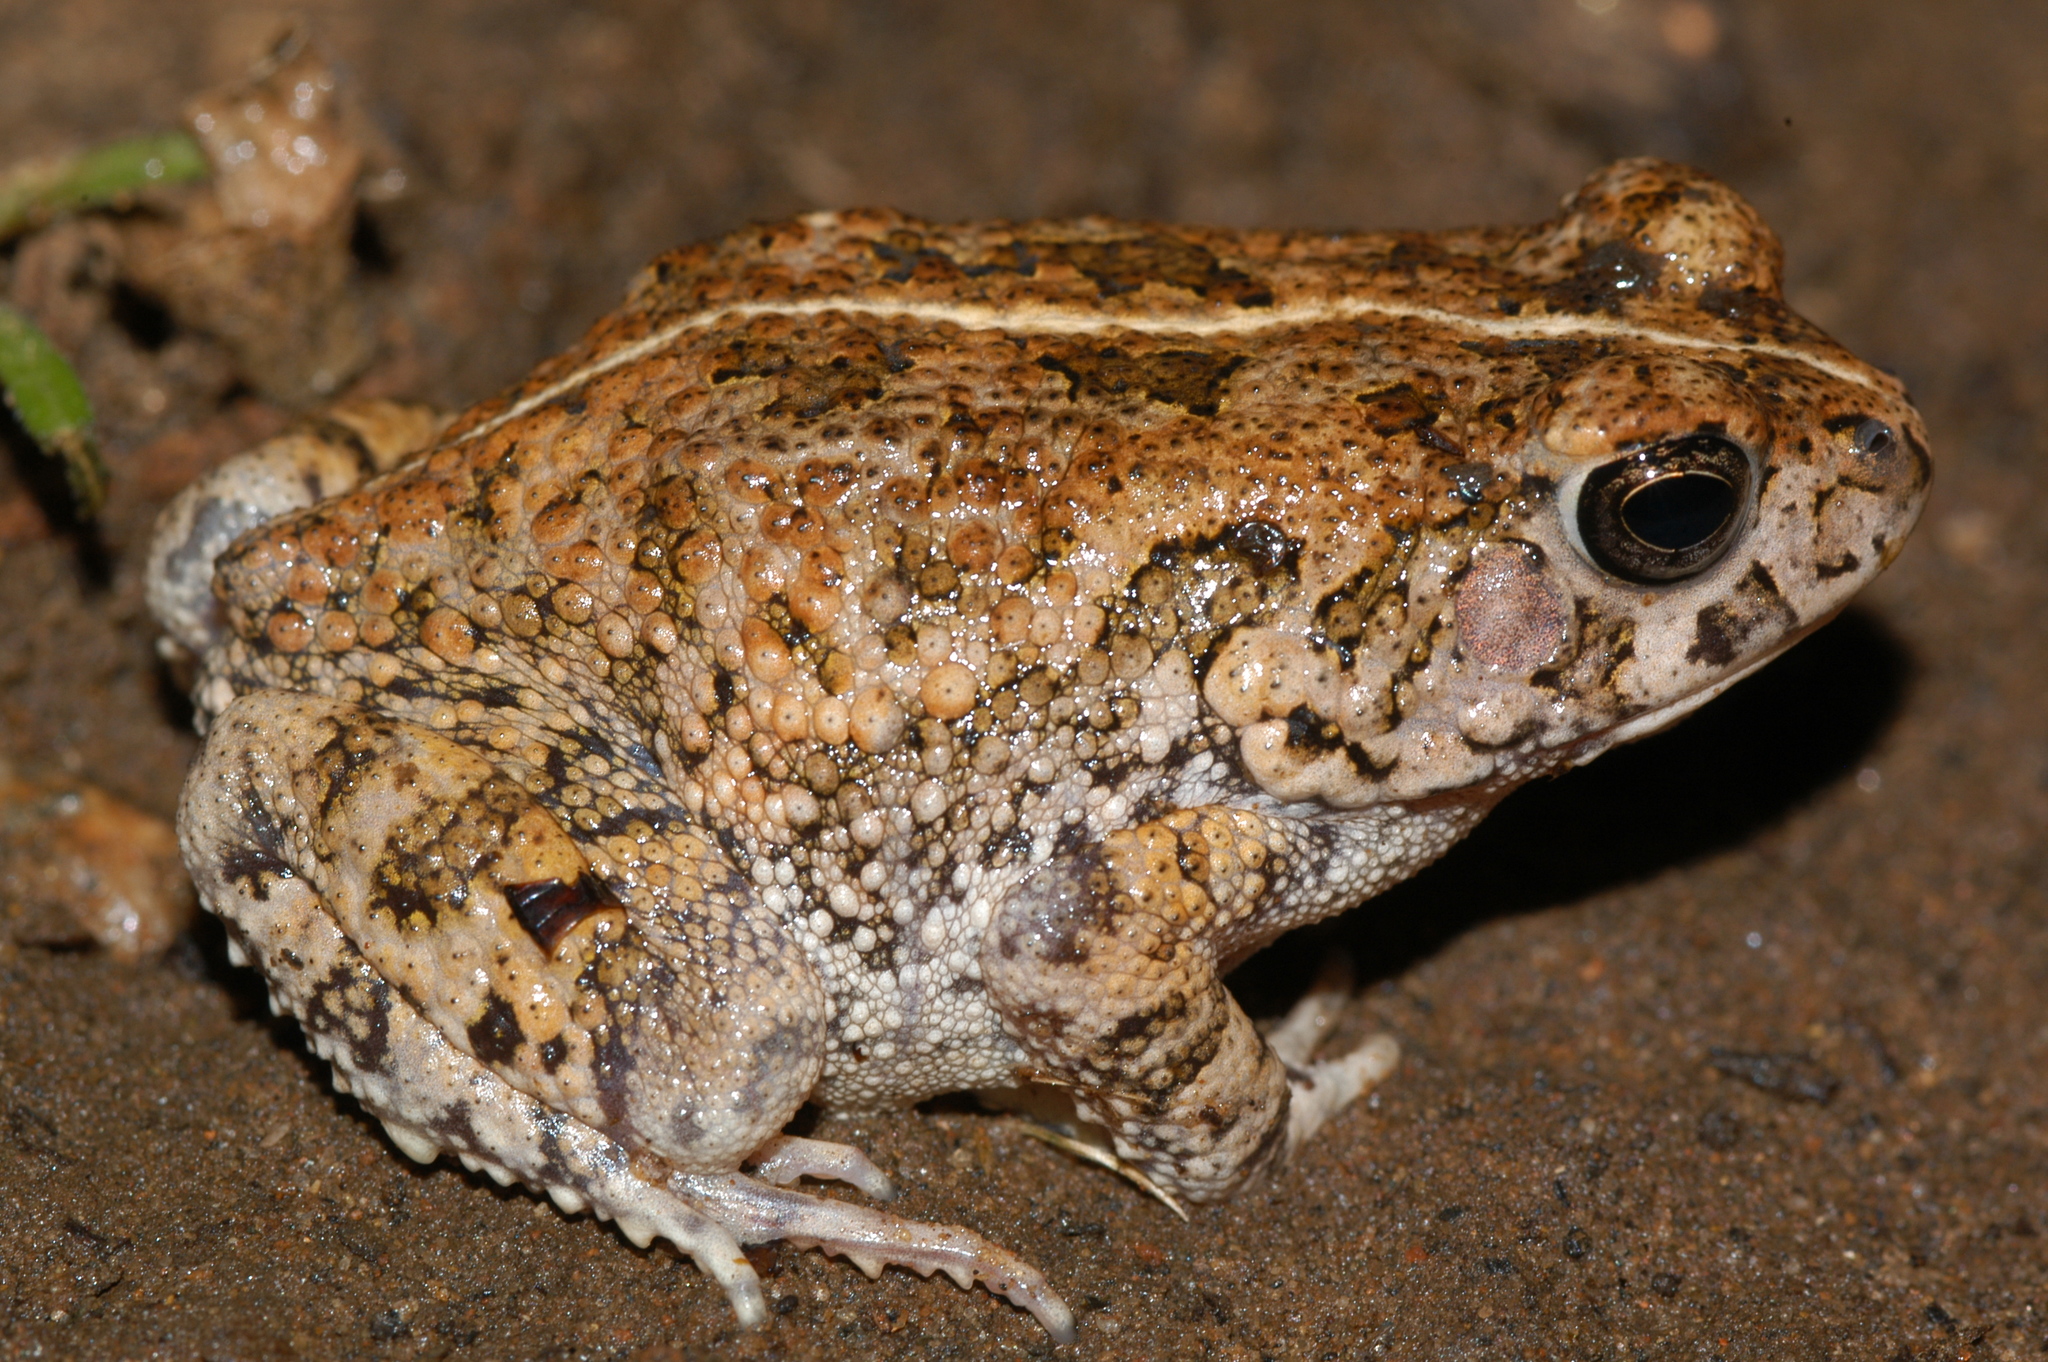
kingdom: Animalia
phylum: Chordata
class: Amphibia
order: Anura
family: Bufonidae
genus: Sclerophrys
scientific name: Sclerophrys pusilla
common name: Merten's striped toad
